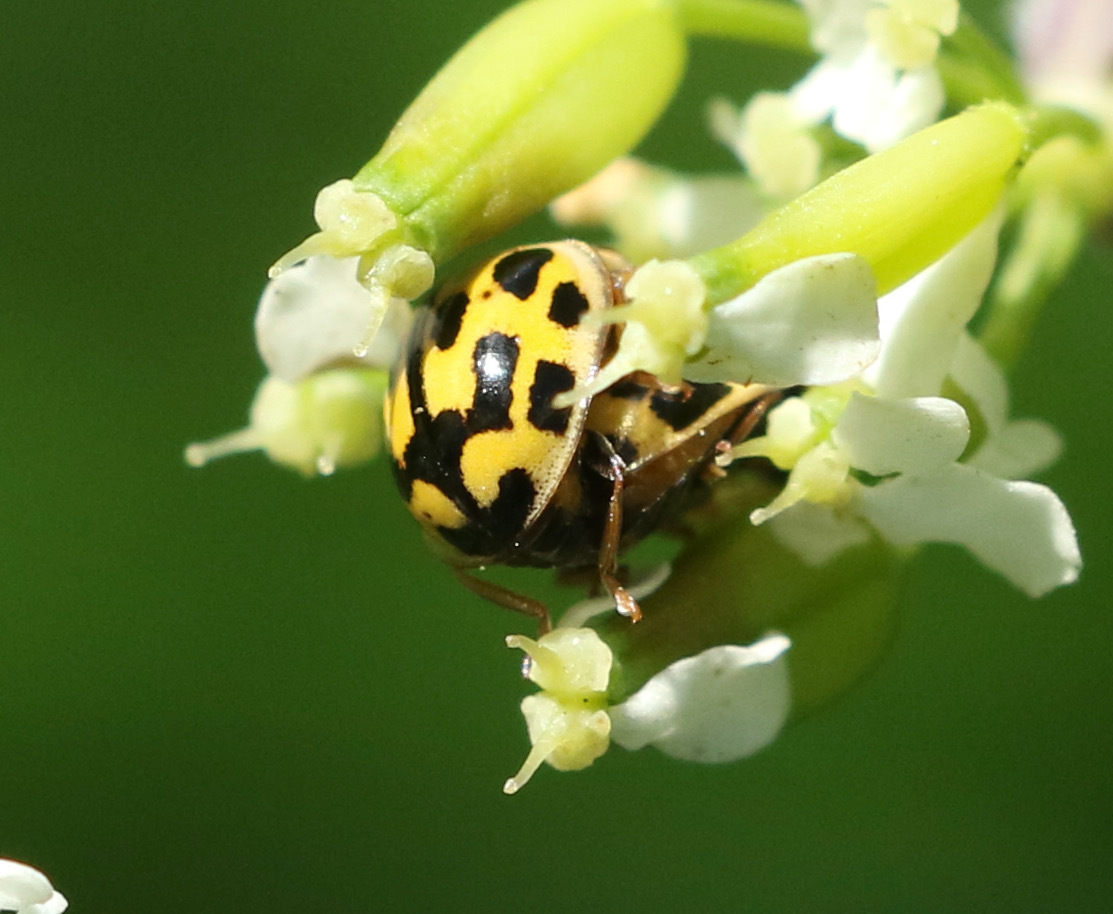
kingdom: Animalia
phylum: Arthropoda
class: Insecta
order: Coleoptera
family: Coccinellidae
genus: Propylaea
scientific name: Propylaea quatuordecimpunctata
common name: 14-spotted ladybird beetle
